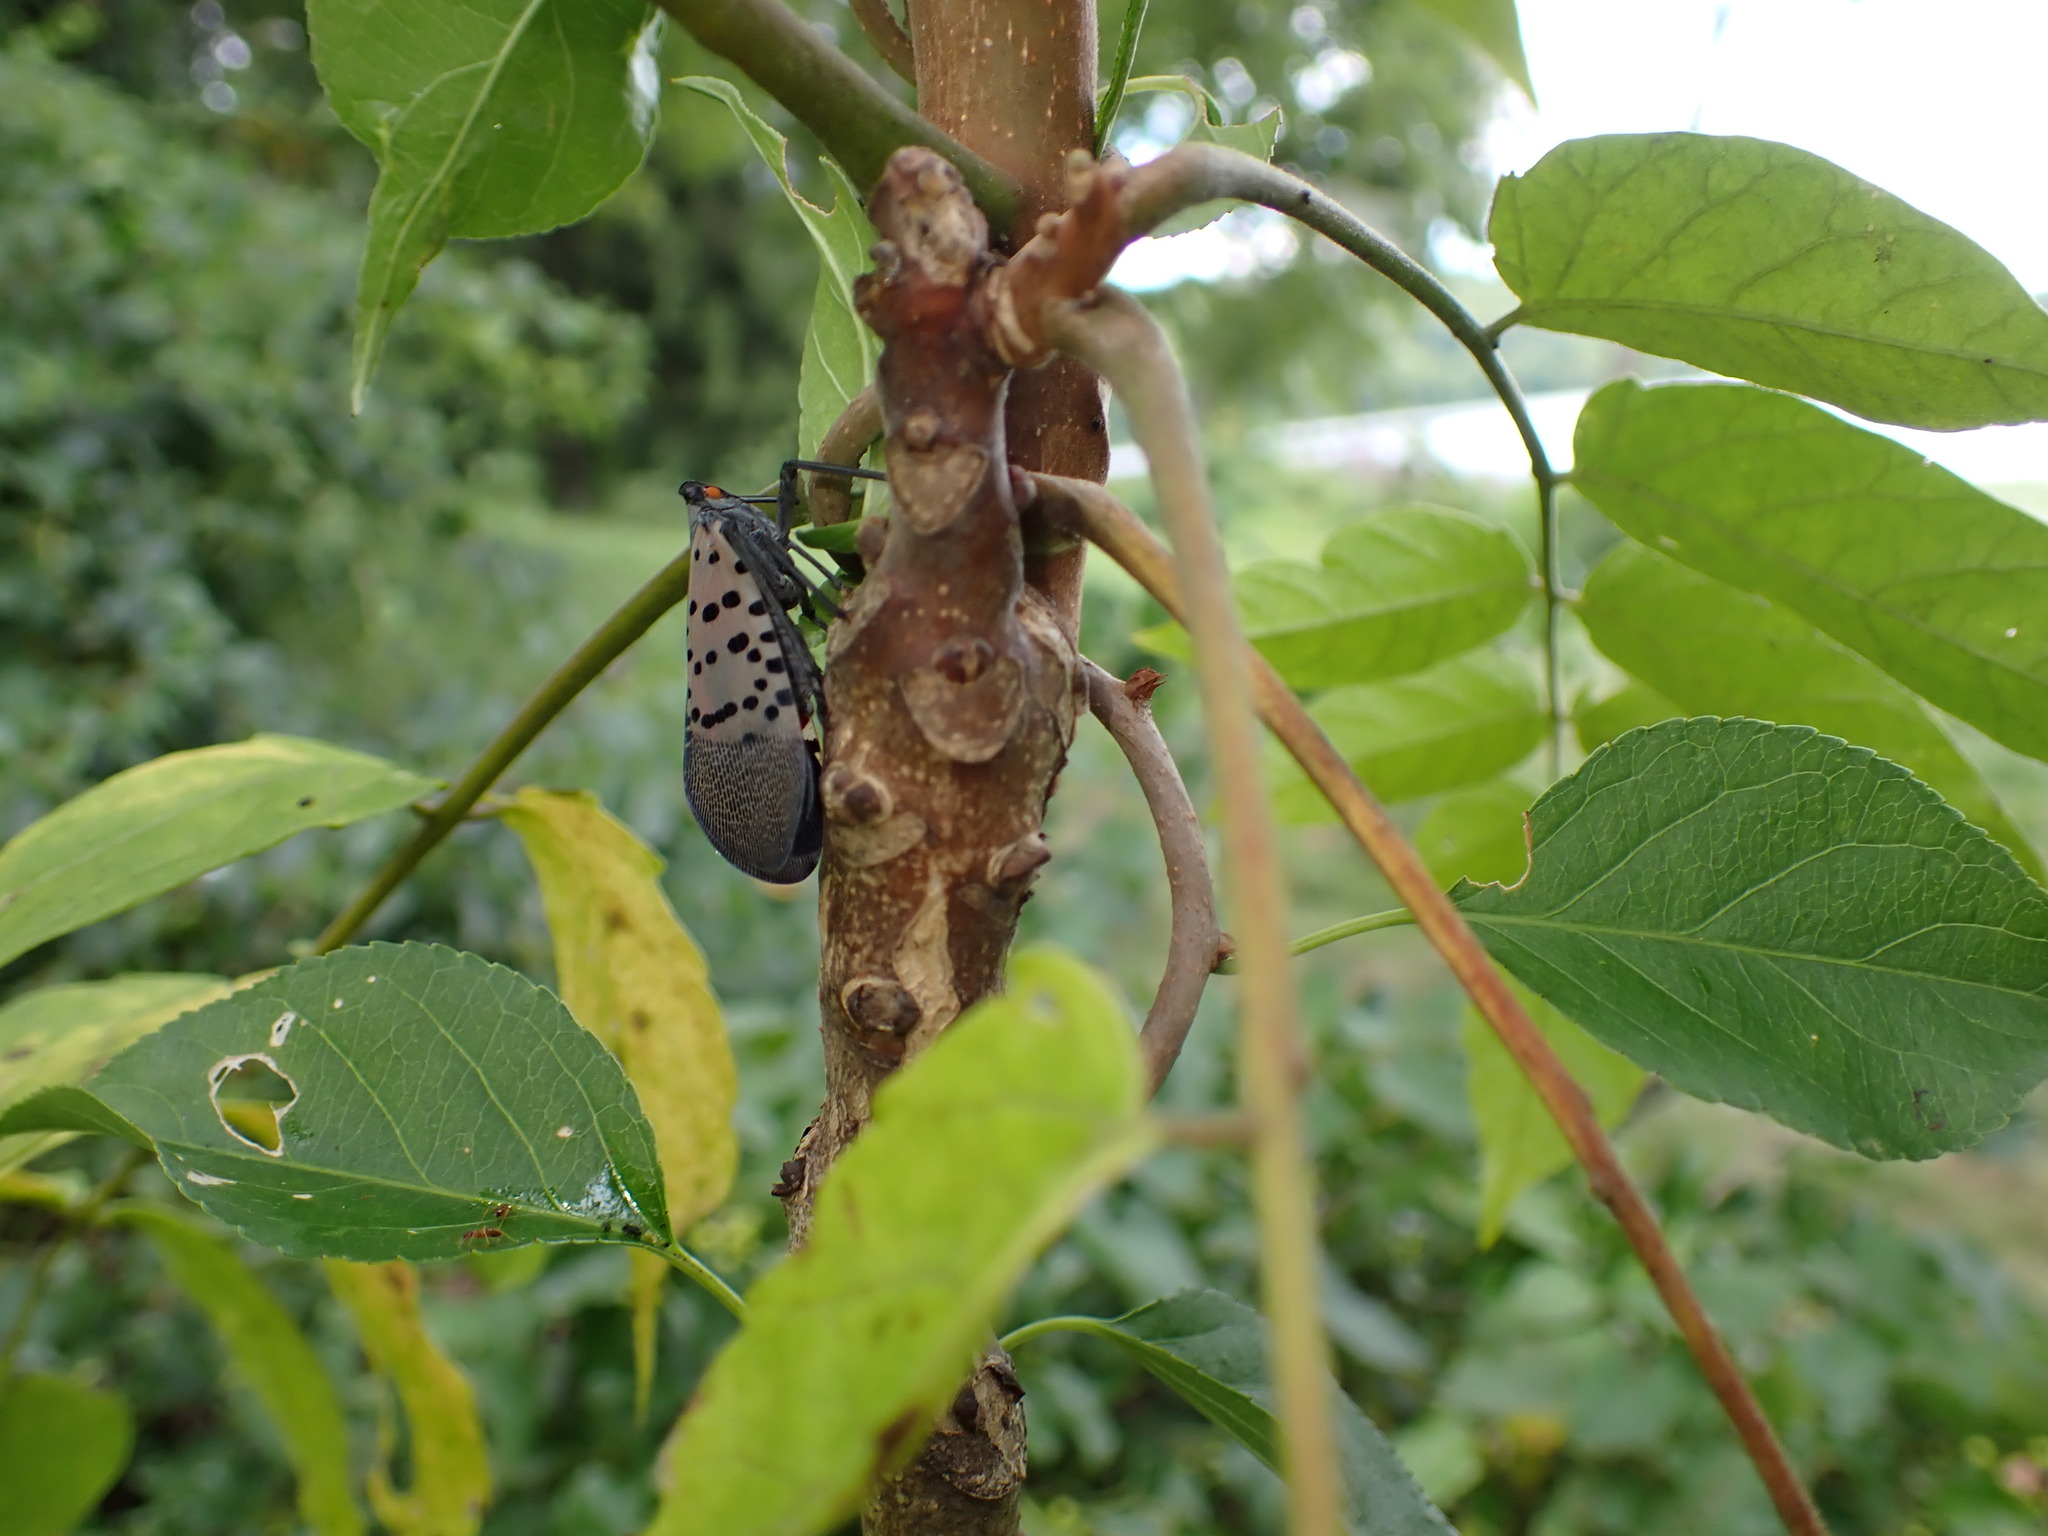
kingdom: Animalia
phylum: Arthropoda
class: Insecta
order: Hemiptera
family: Fulgoridae
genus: Lycorma
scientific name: Lycorma delicatula
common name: Spotted lanternfly
